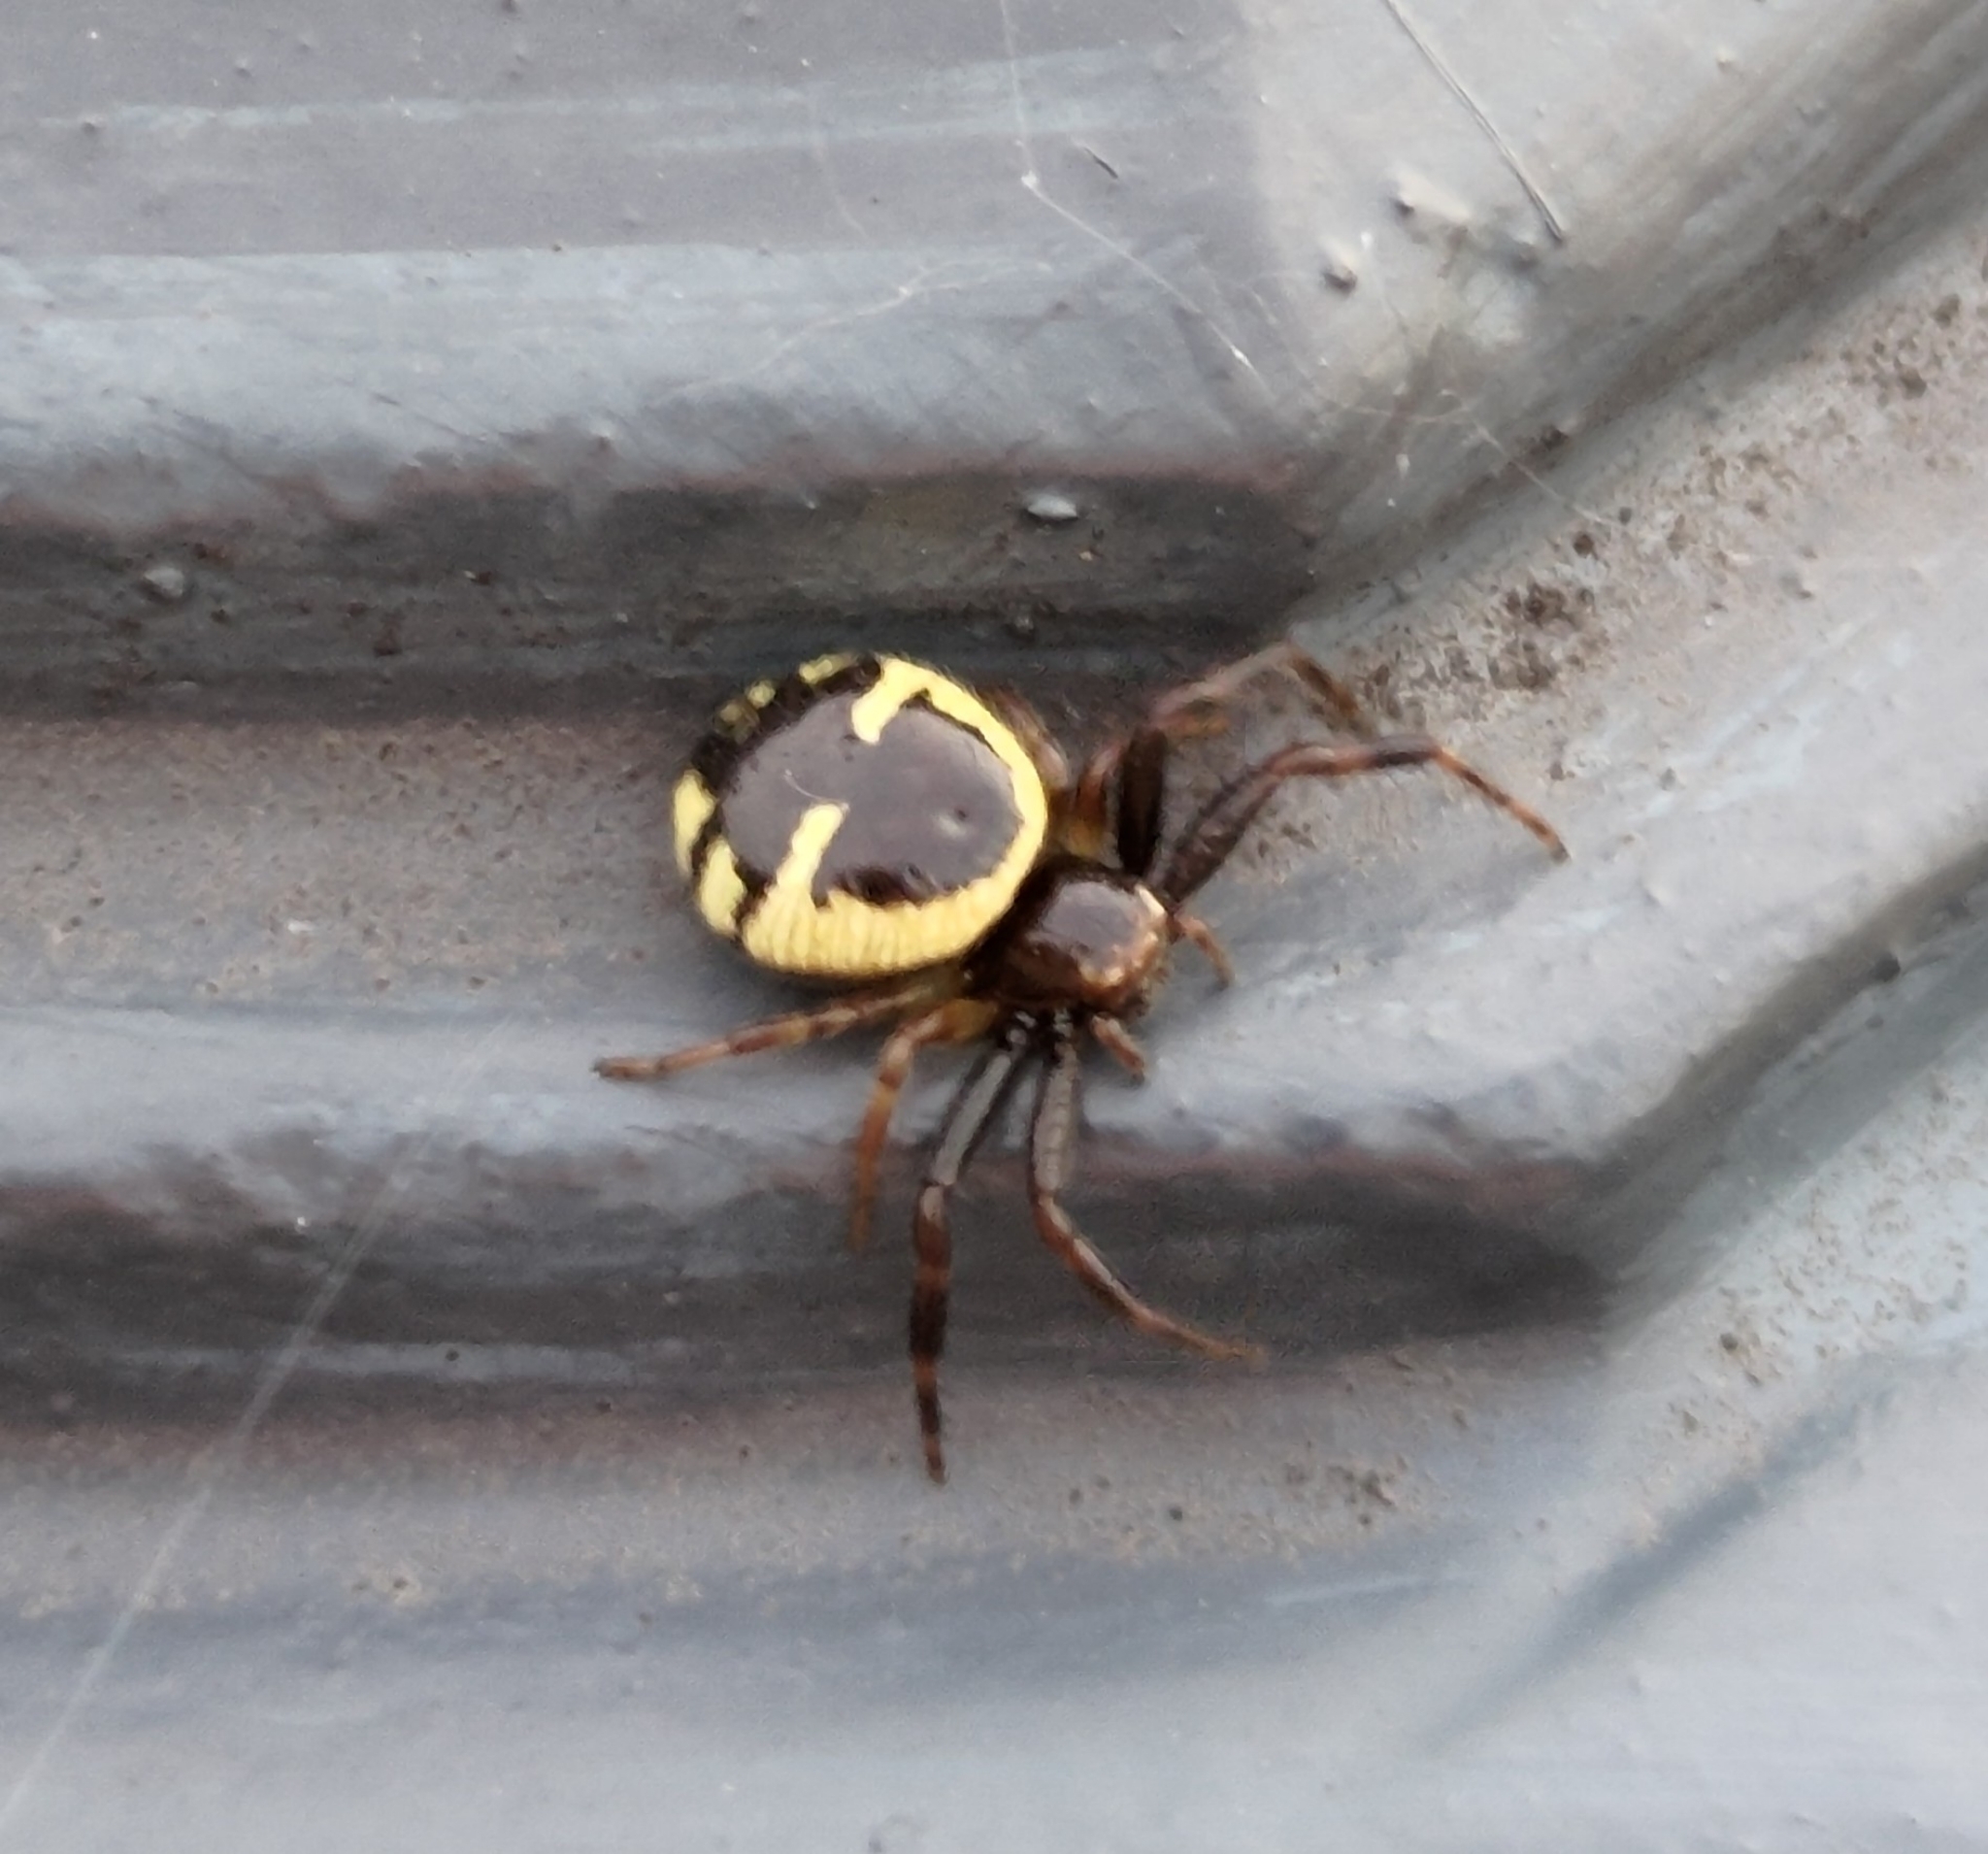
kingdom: Animalia
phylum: Arthropoda
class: Arachnida
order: Araneae
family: Thomisidae
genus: Synema
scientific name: Synema globosum
